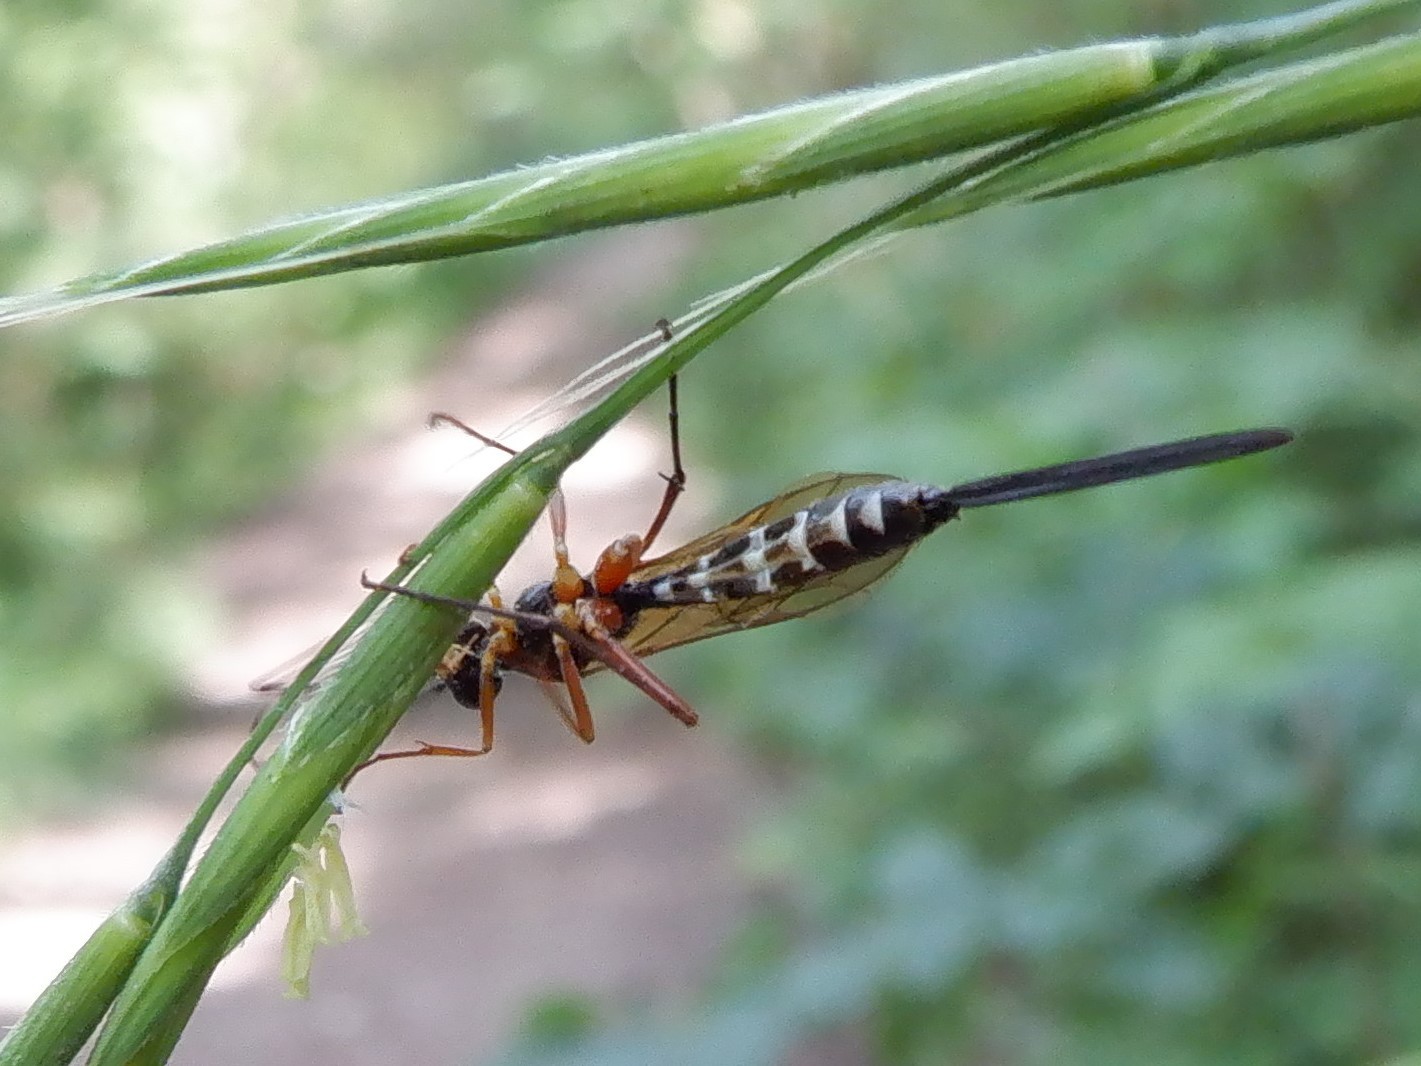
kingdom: Animalia
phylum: Arthropoda
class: Insecta
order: Hymenoptera
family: Ichneumonidae
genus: Lissonota
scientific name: Lissonota lineolaris
